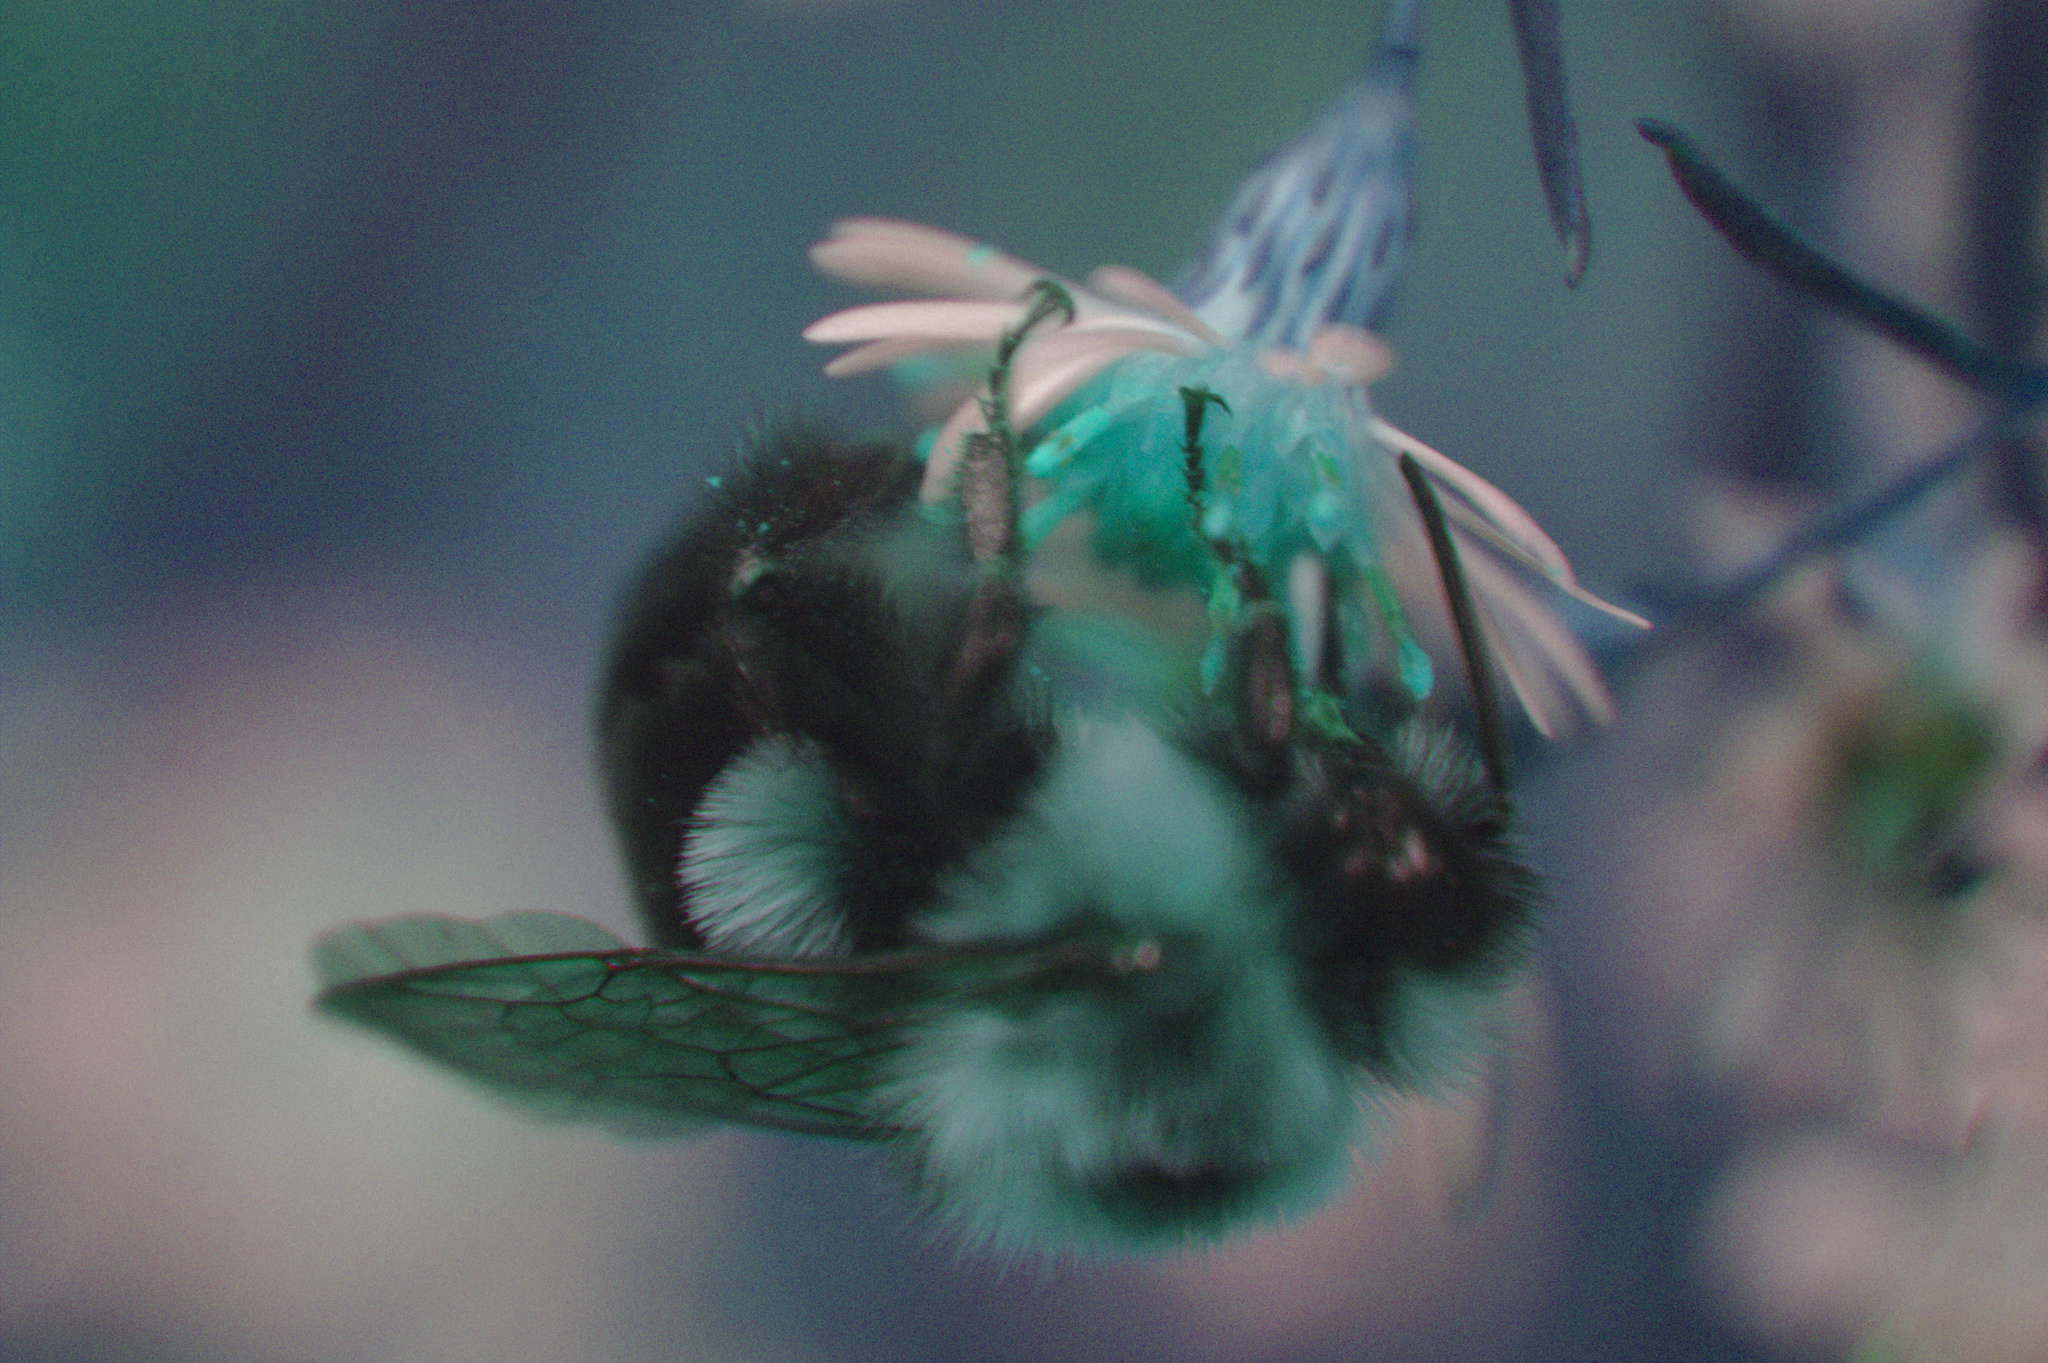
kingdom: Animalia
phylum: Arthropoda
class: Insecta
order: Hymenoptera
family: Apidae
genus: Bombus
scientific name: Bombus impatiens
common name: Common eastern bumble bee
